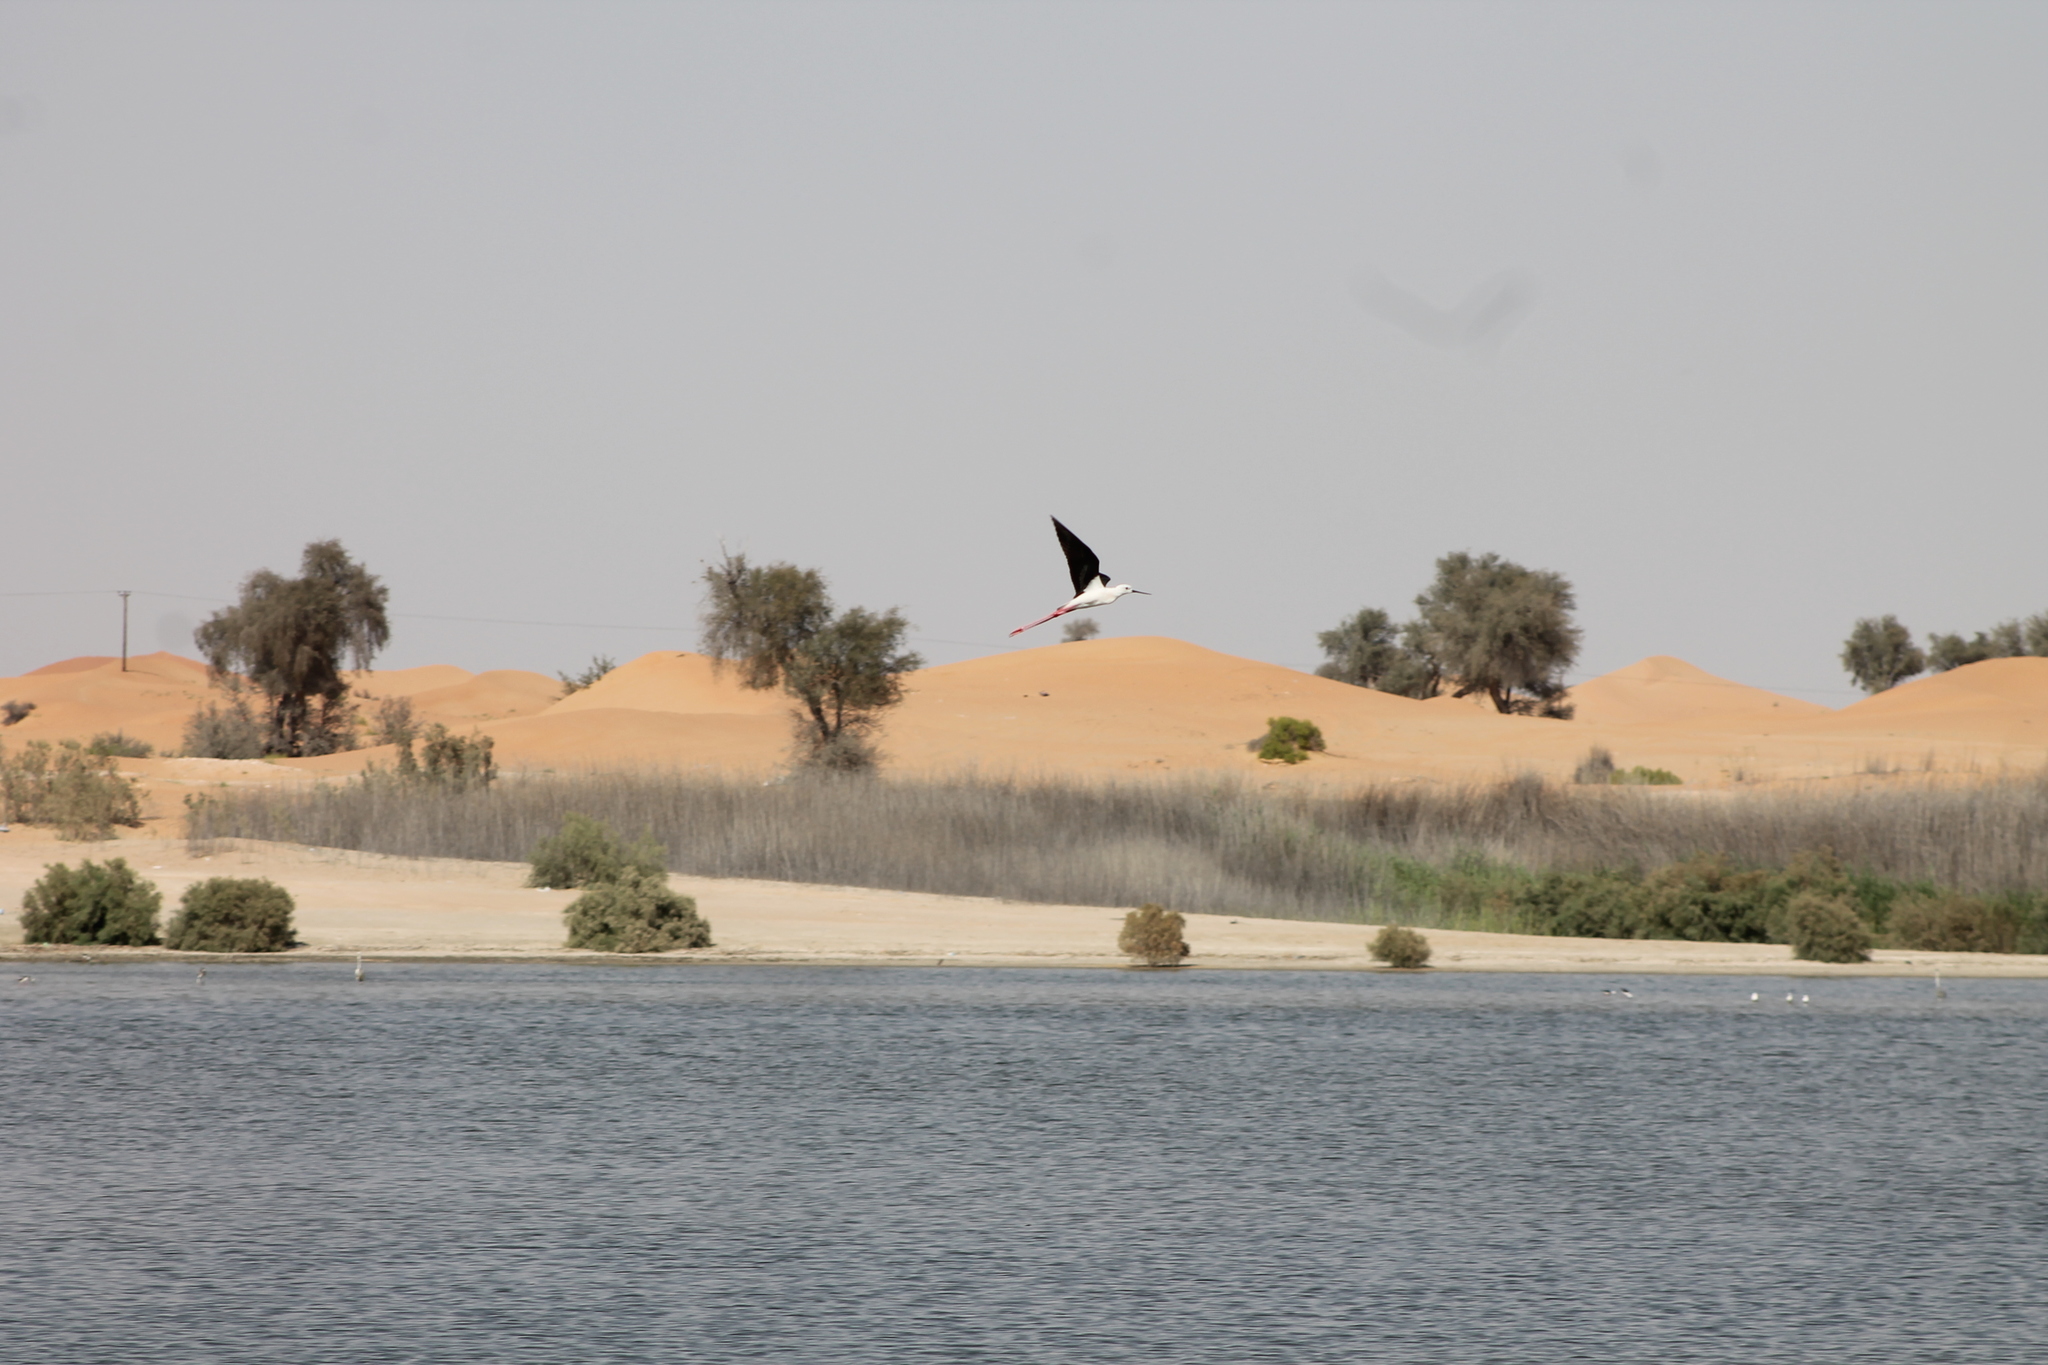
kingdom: Animalia
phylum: Chordata
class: Aves
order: Charadriiformes
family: Recurvirostridae
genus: Himantopus
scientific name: Himantopus himantopus
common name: Black-winged stilt
